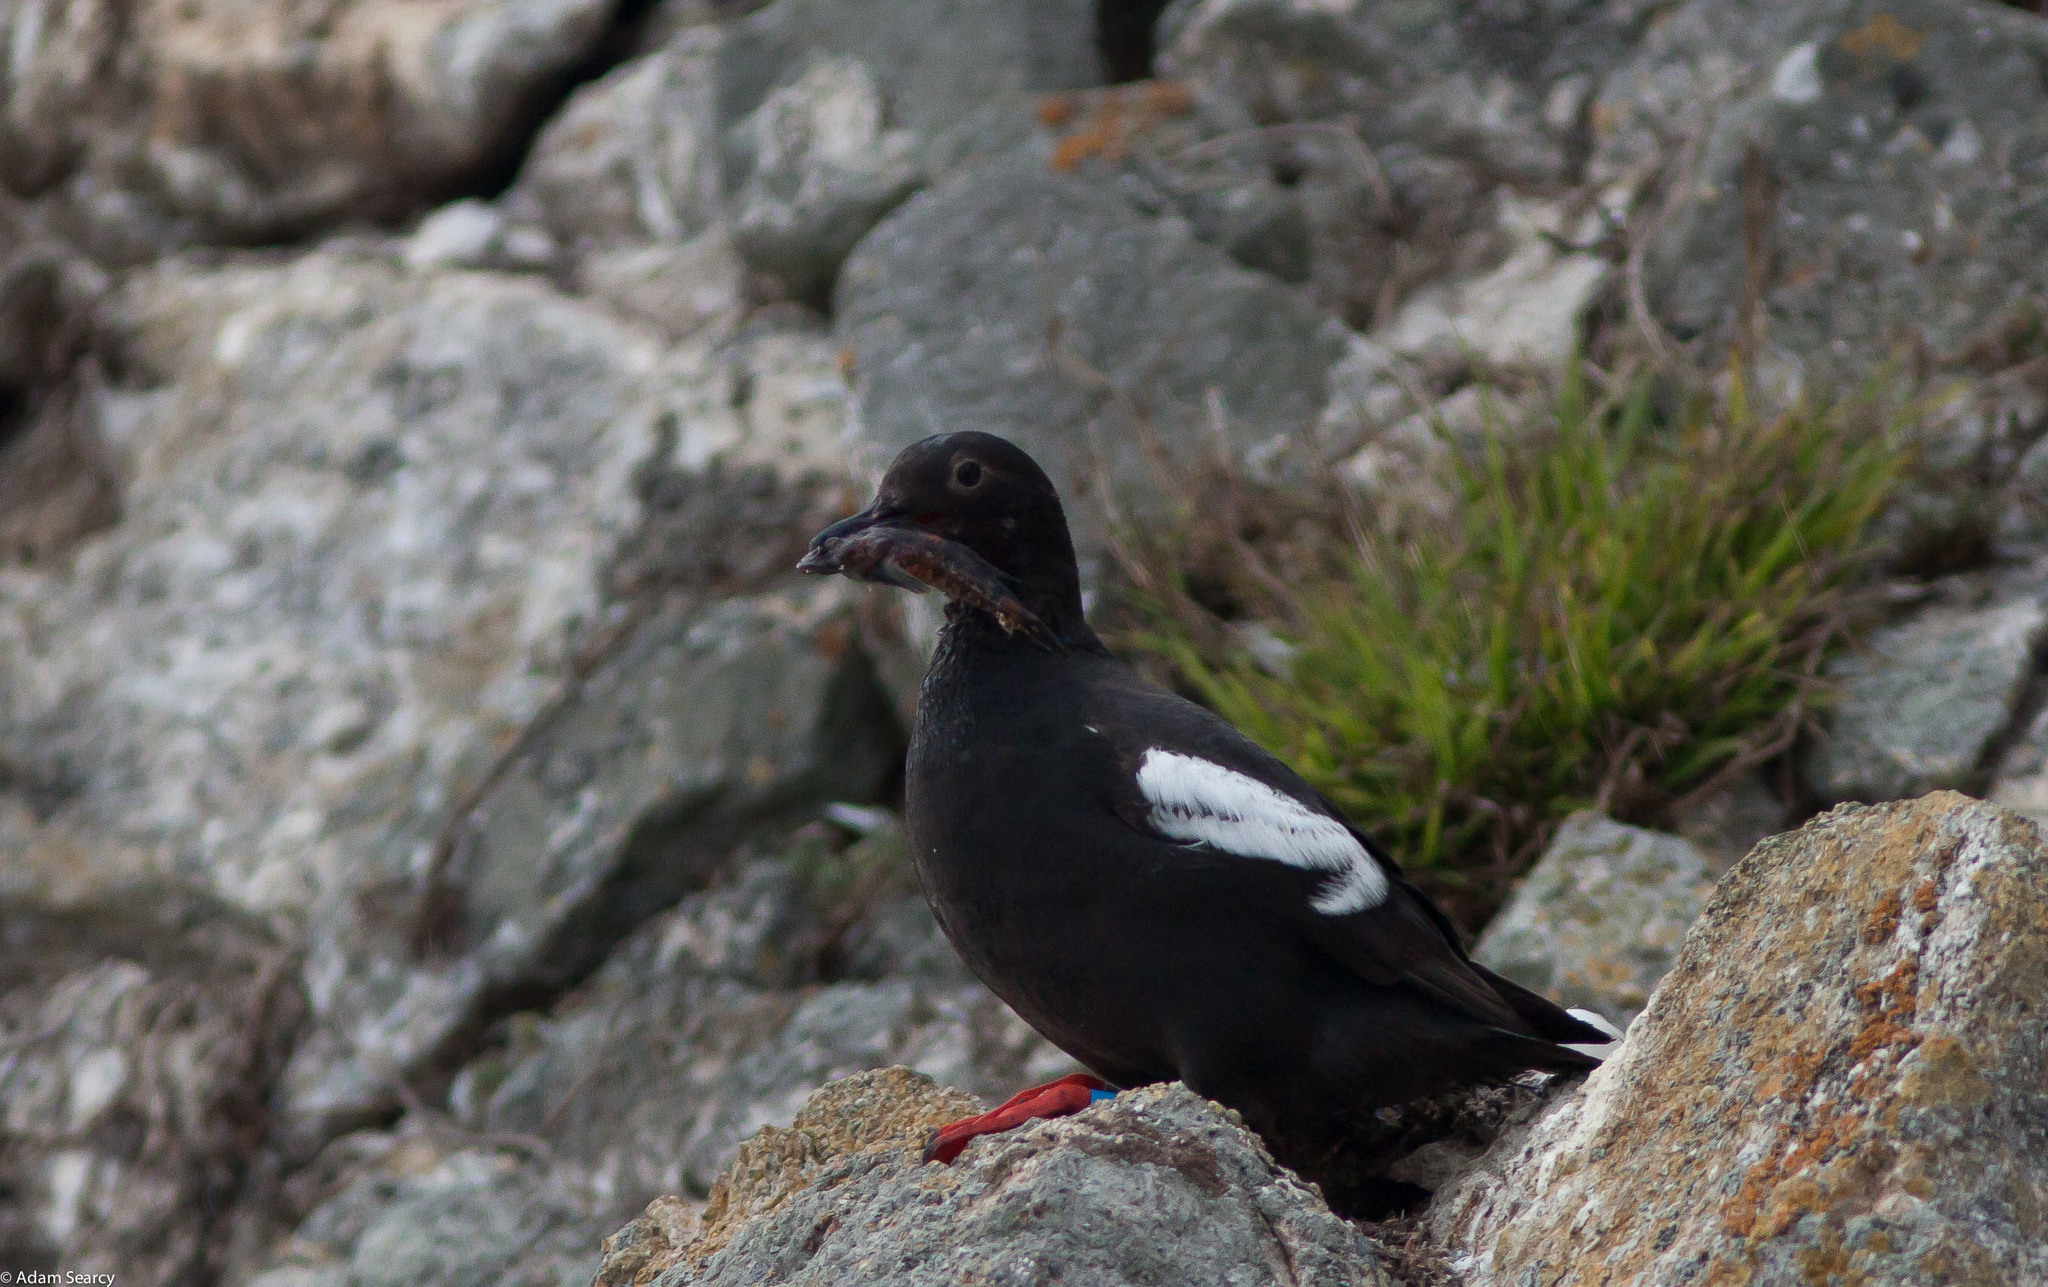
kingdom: Animalia
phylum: Chordata
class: Aves
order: Charadriiformes
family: Alcidae
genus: Cepphus
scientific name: Cepphus columba
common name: Pigeon guillemot
